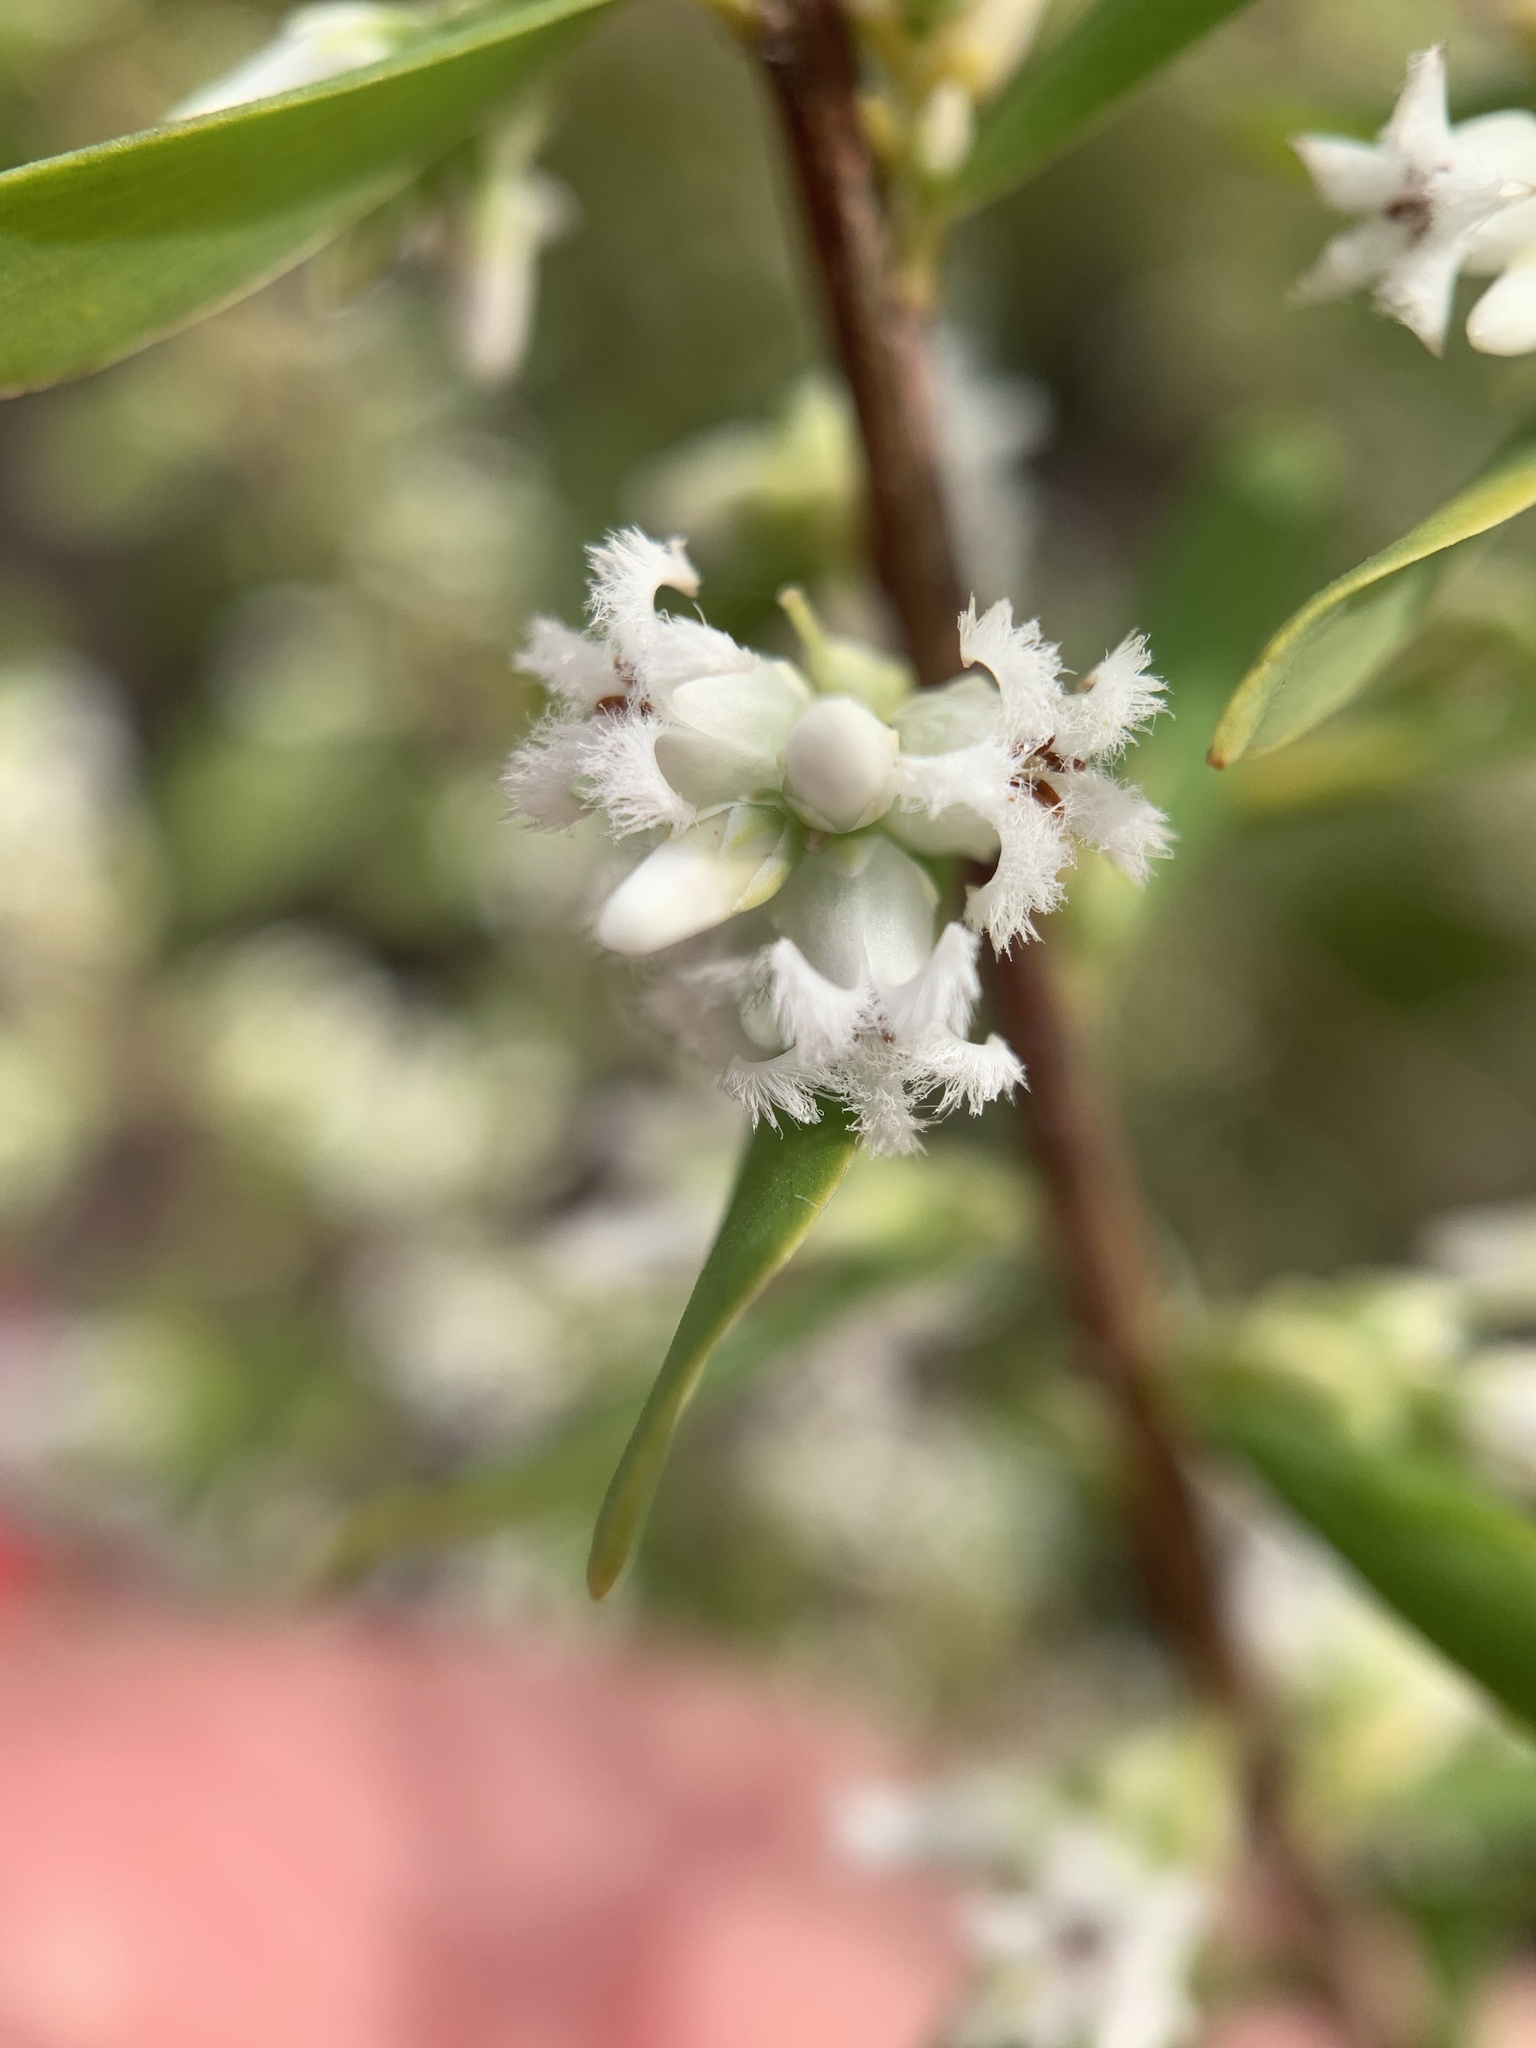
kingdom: Plantae
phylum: Tracheophyta
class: Magnoliopsida
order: Ericales
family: Ericaceae
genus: Styphelia
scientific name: Styphelia mutica
